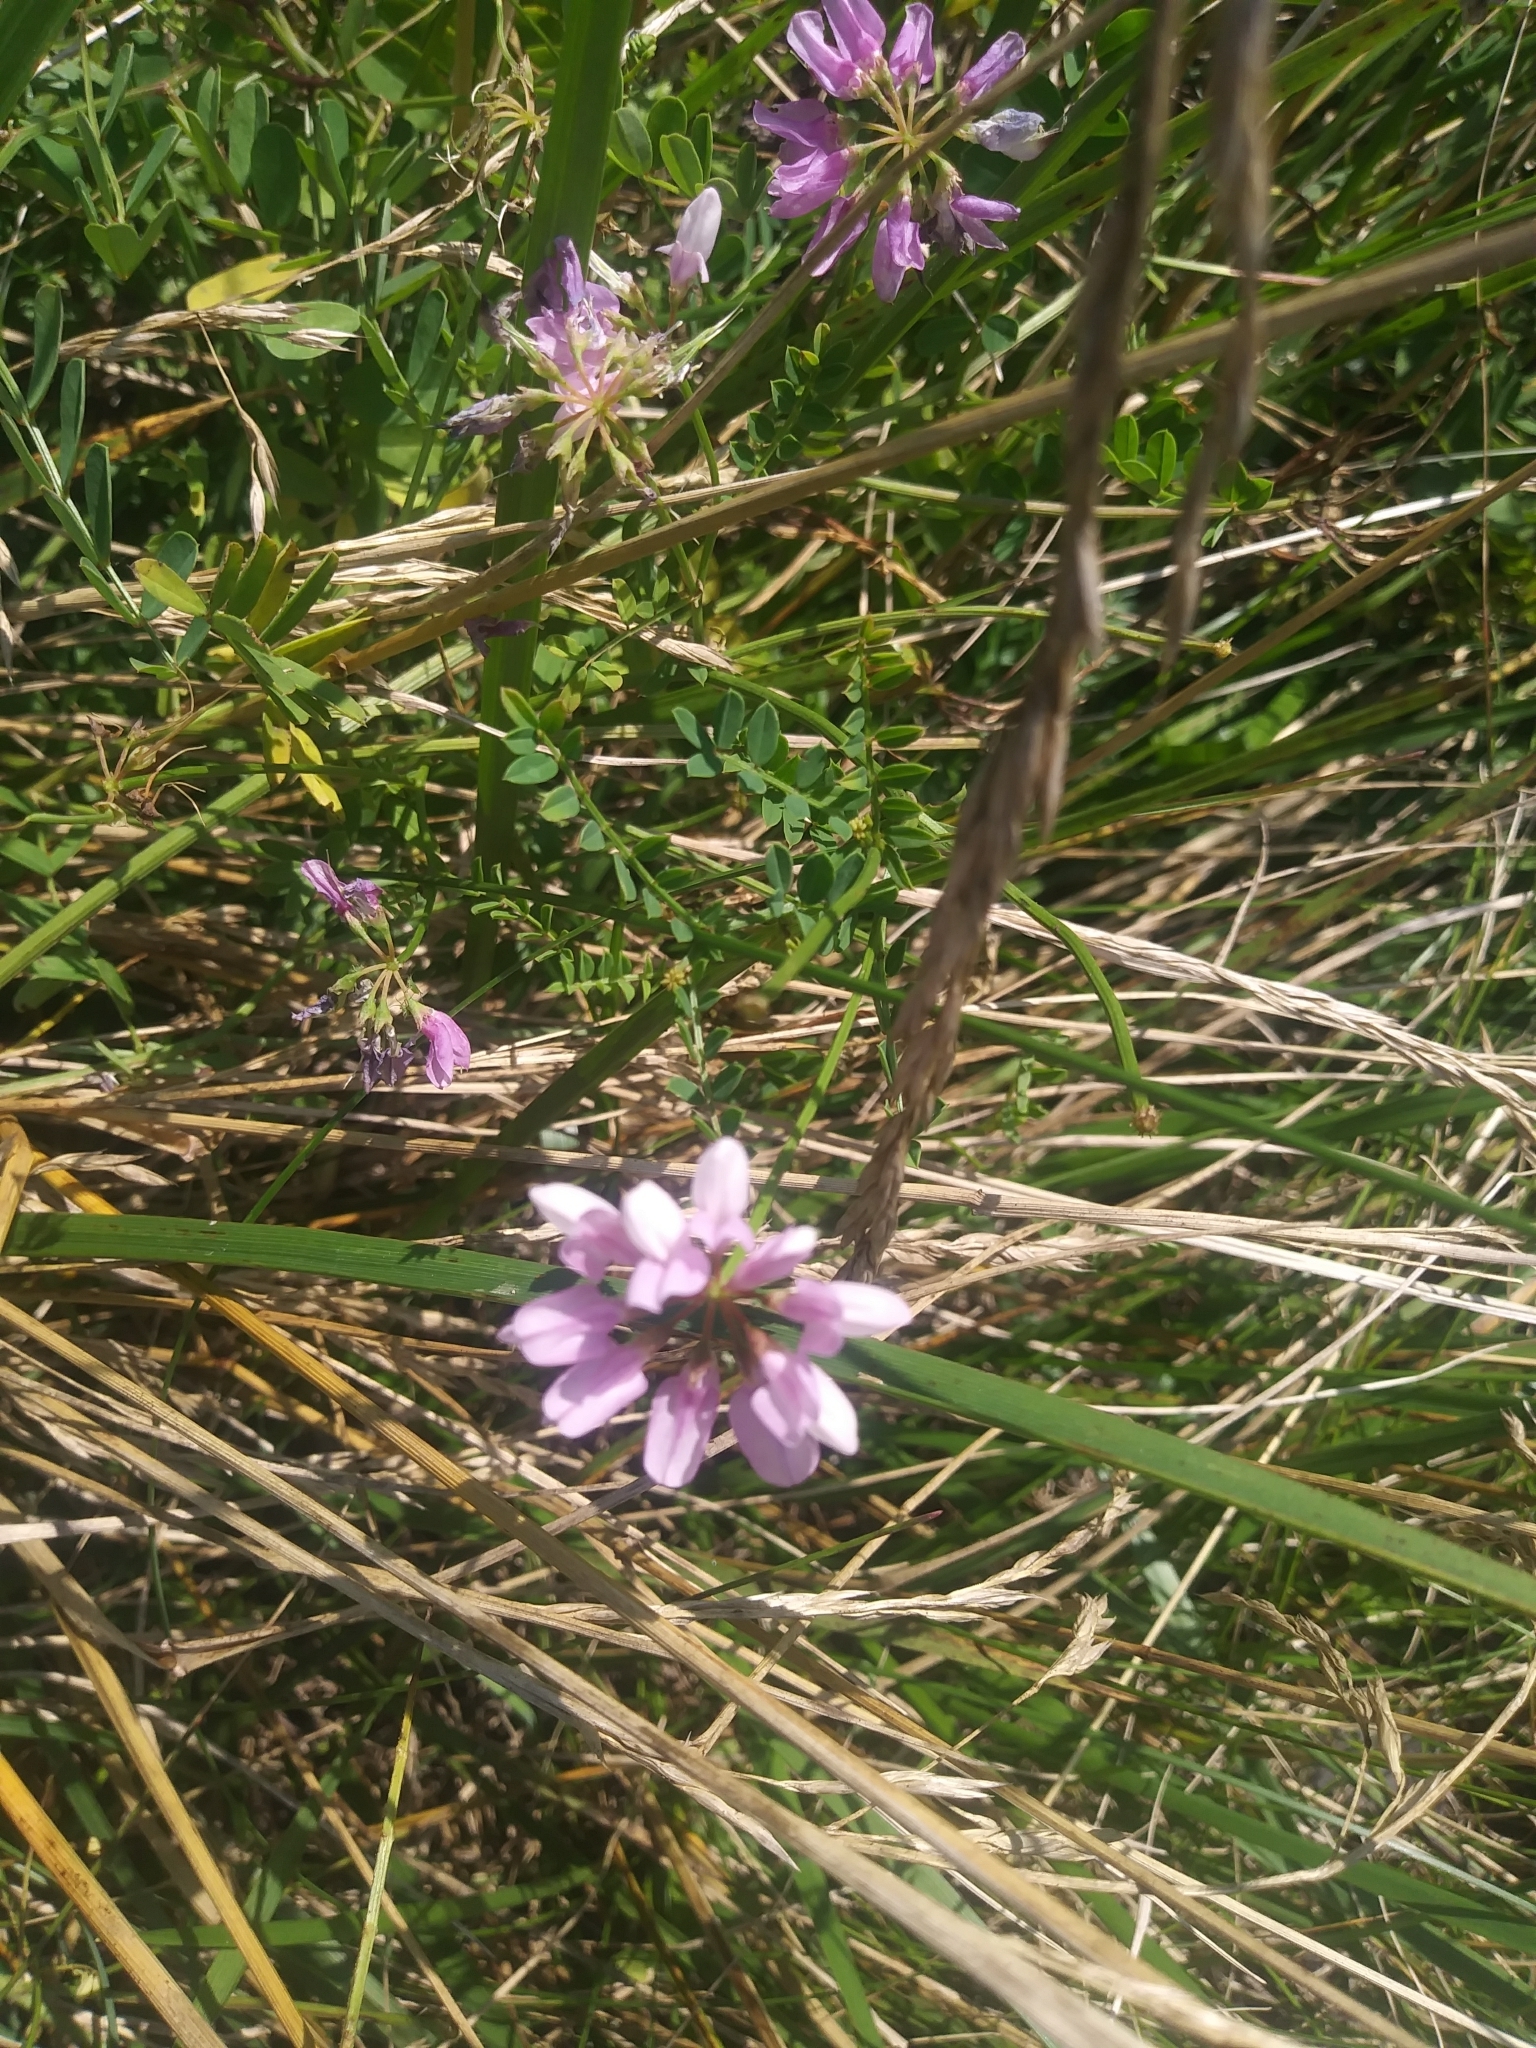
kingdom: Plantae
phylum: Tracheophyta
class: Magnoliopsida
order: Fabales
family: Fabaceae
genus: Coronilla
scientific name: Coronilla varia
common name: Crownvetch
